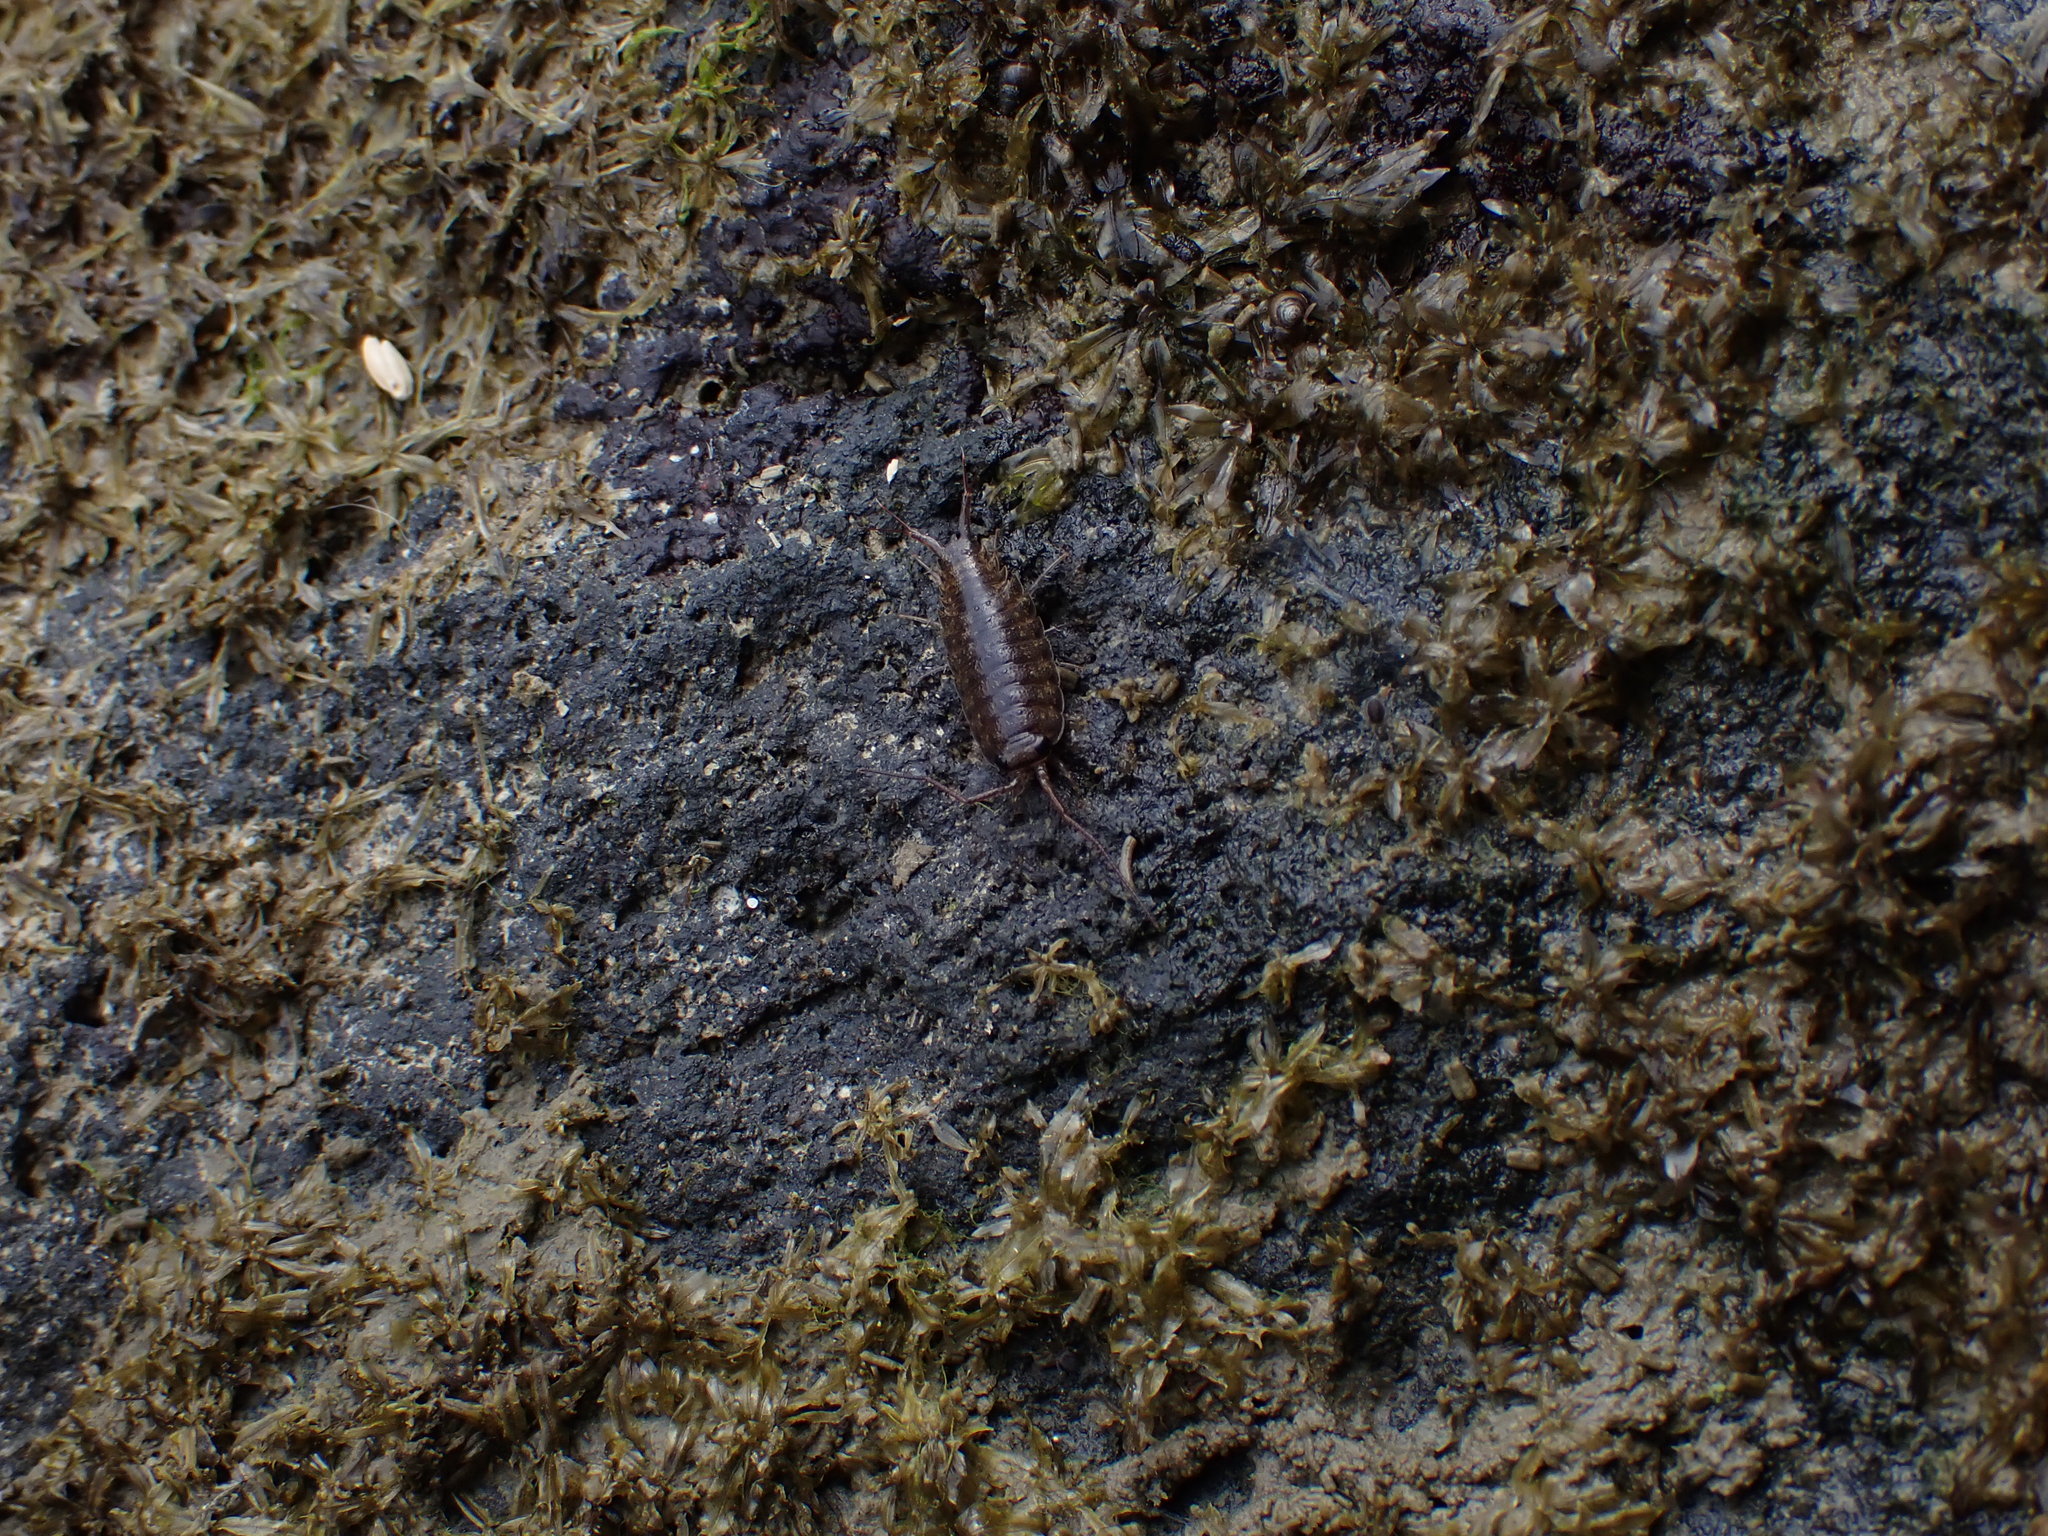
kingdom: Animalia
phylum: Arthropoda
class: Malacostraca
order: Isopoda
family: Ligiidae
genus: Ligia
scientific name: Ligia novizealandiae
